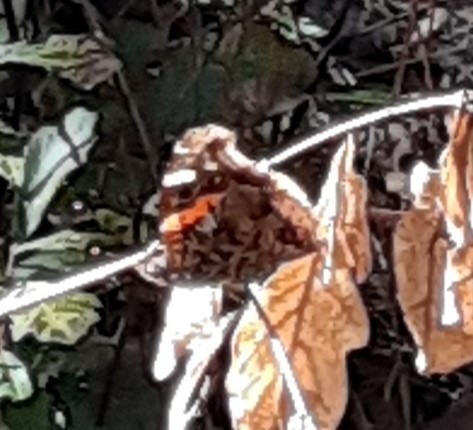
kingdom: Animalia
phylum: Arthropoda
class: Insecta
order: Lepidoptera
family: Nymphalidae
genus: Vanessa
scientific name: Vanessa atalanta
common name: Red admiral
